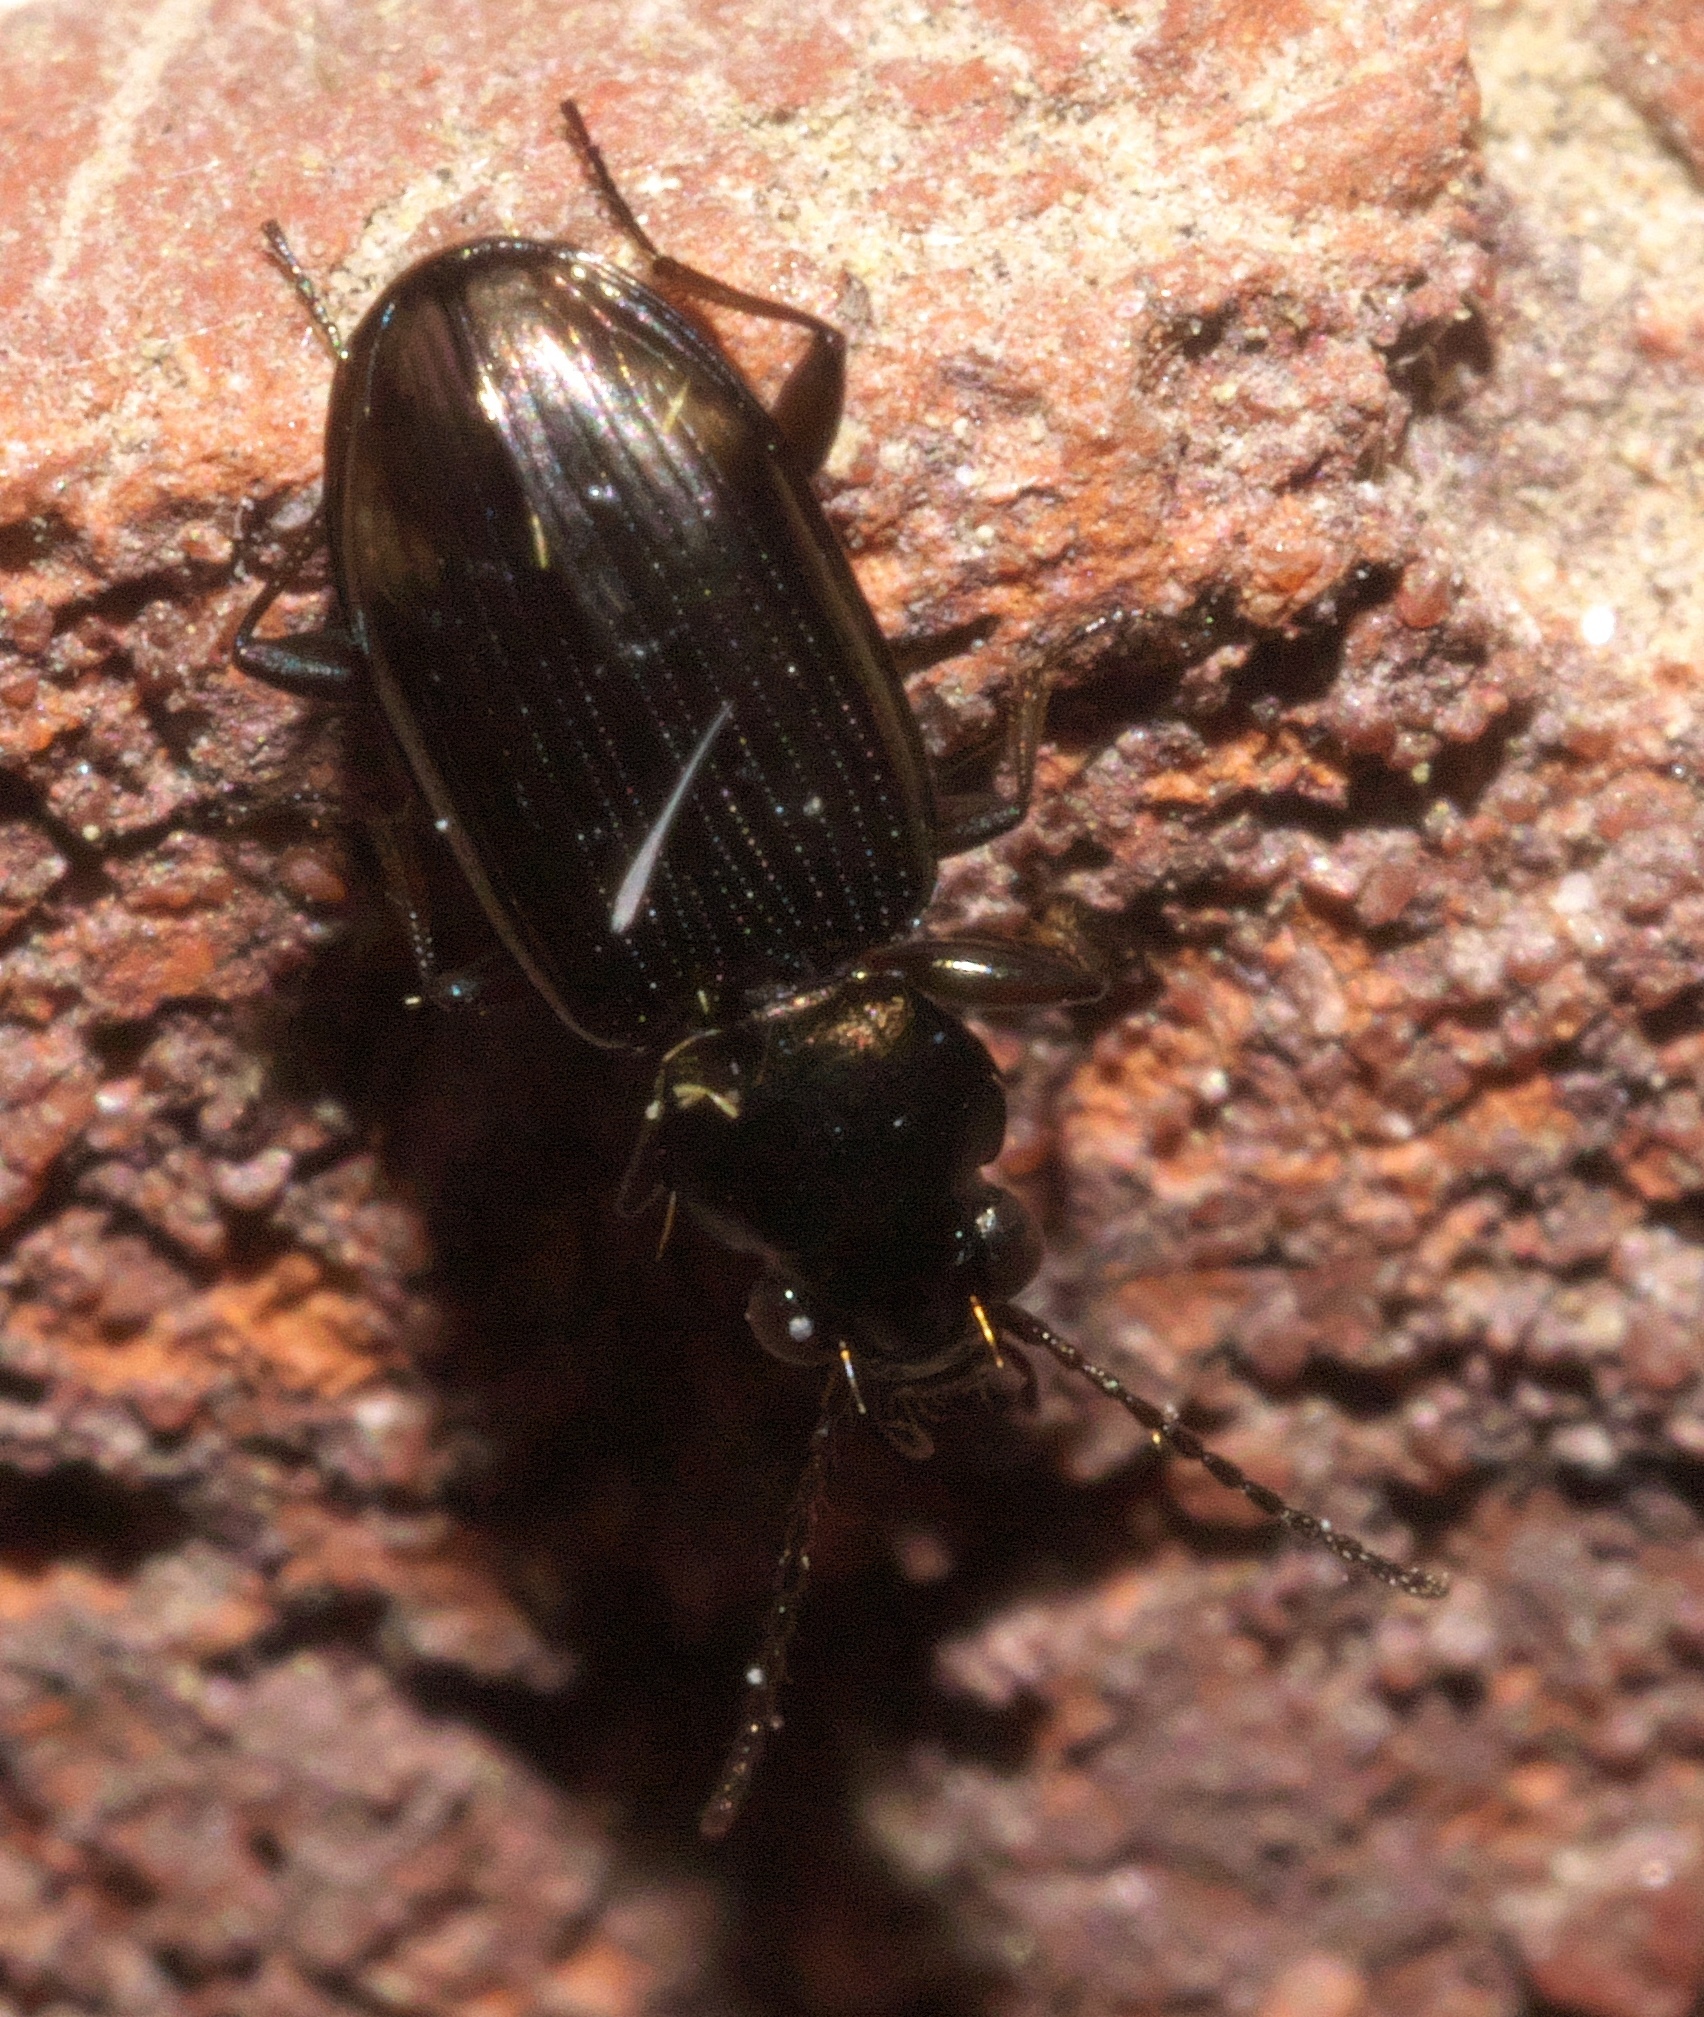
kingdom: Animalia
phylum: Arthropoda
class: Insecta
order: Coleoptera
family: Carabidae
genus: Bembidion
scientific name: Bembidion rapidum
